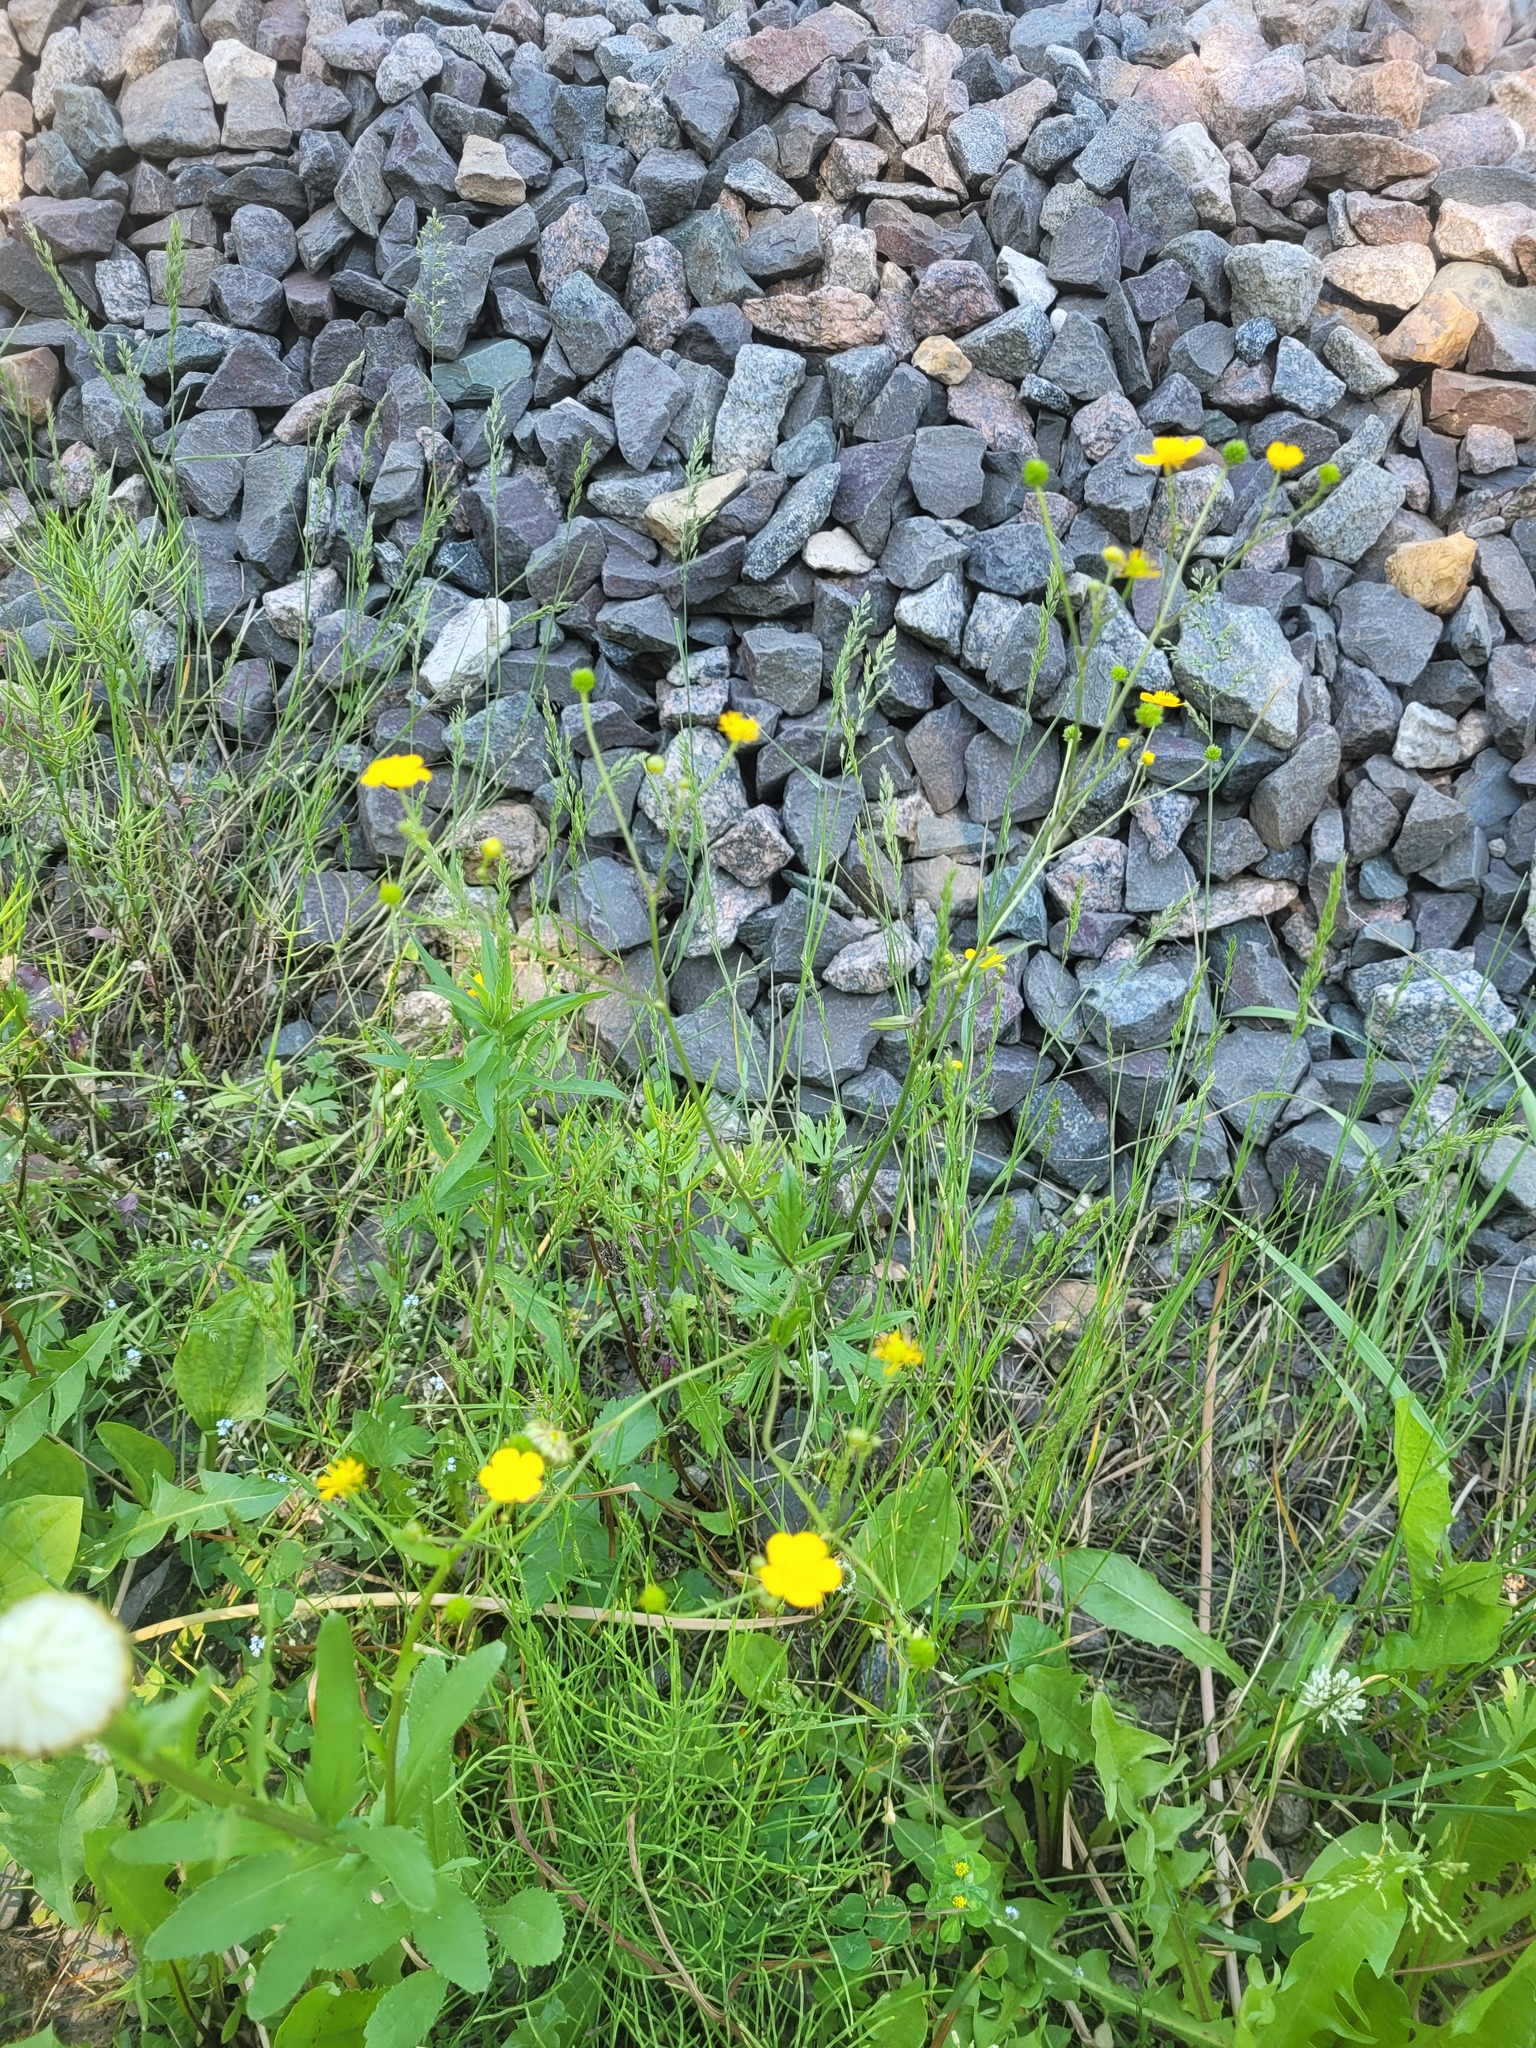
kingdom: Plantae
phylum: Tracheophyta
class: Magnoliopsida
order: Ranunculales
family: Ranunculaceae
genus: Ranunculus
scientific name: Ranunculus acris
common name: Meadow buttercup
